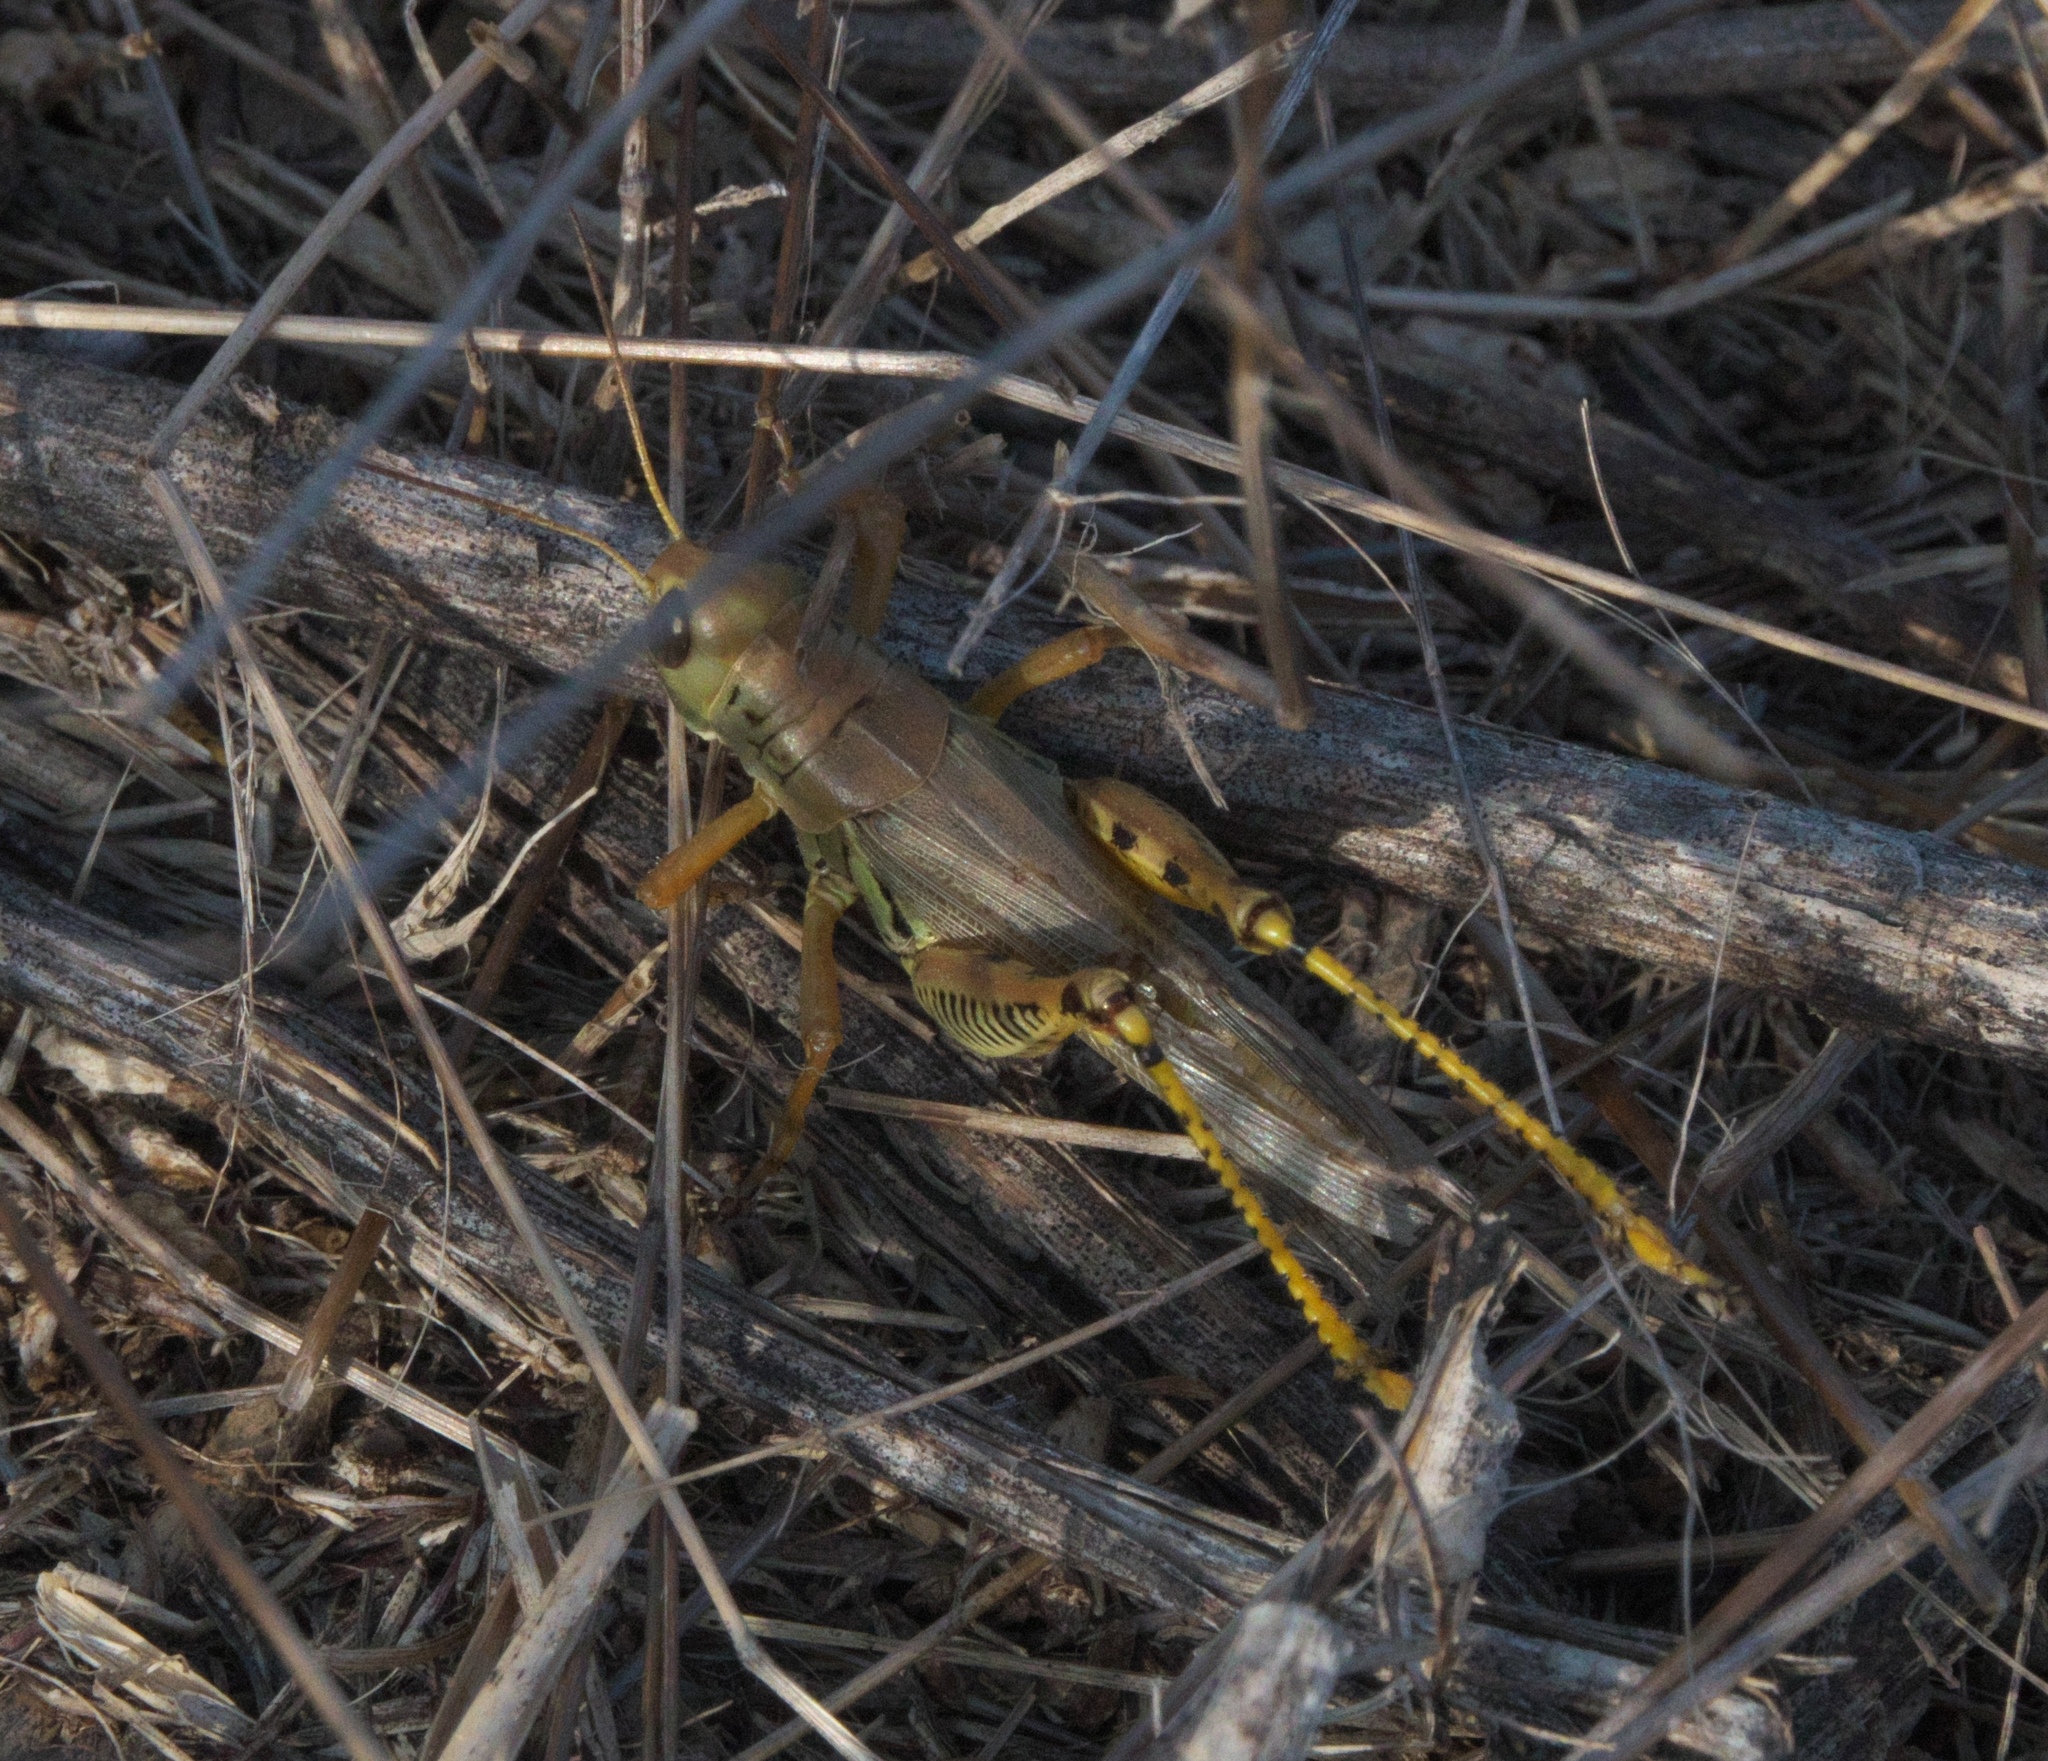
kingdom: Animalia
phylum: Arthropoda
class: Insecta
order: Orthoptera
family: Acrididae
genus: Melanoplus
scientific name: Melanoplus differentialis
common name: Differential grasshopper
